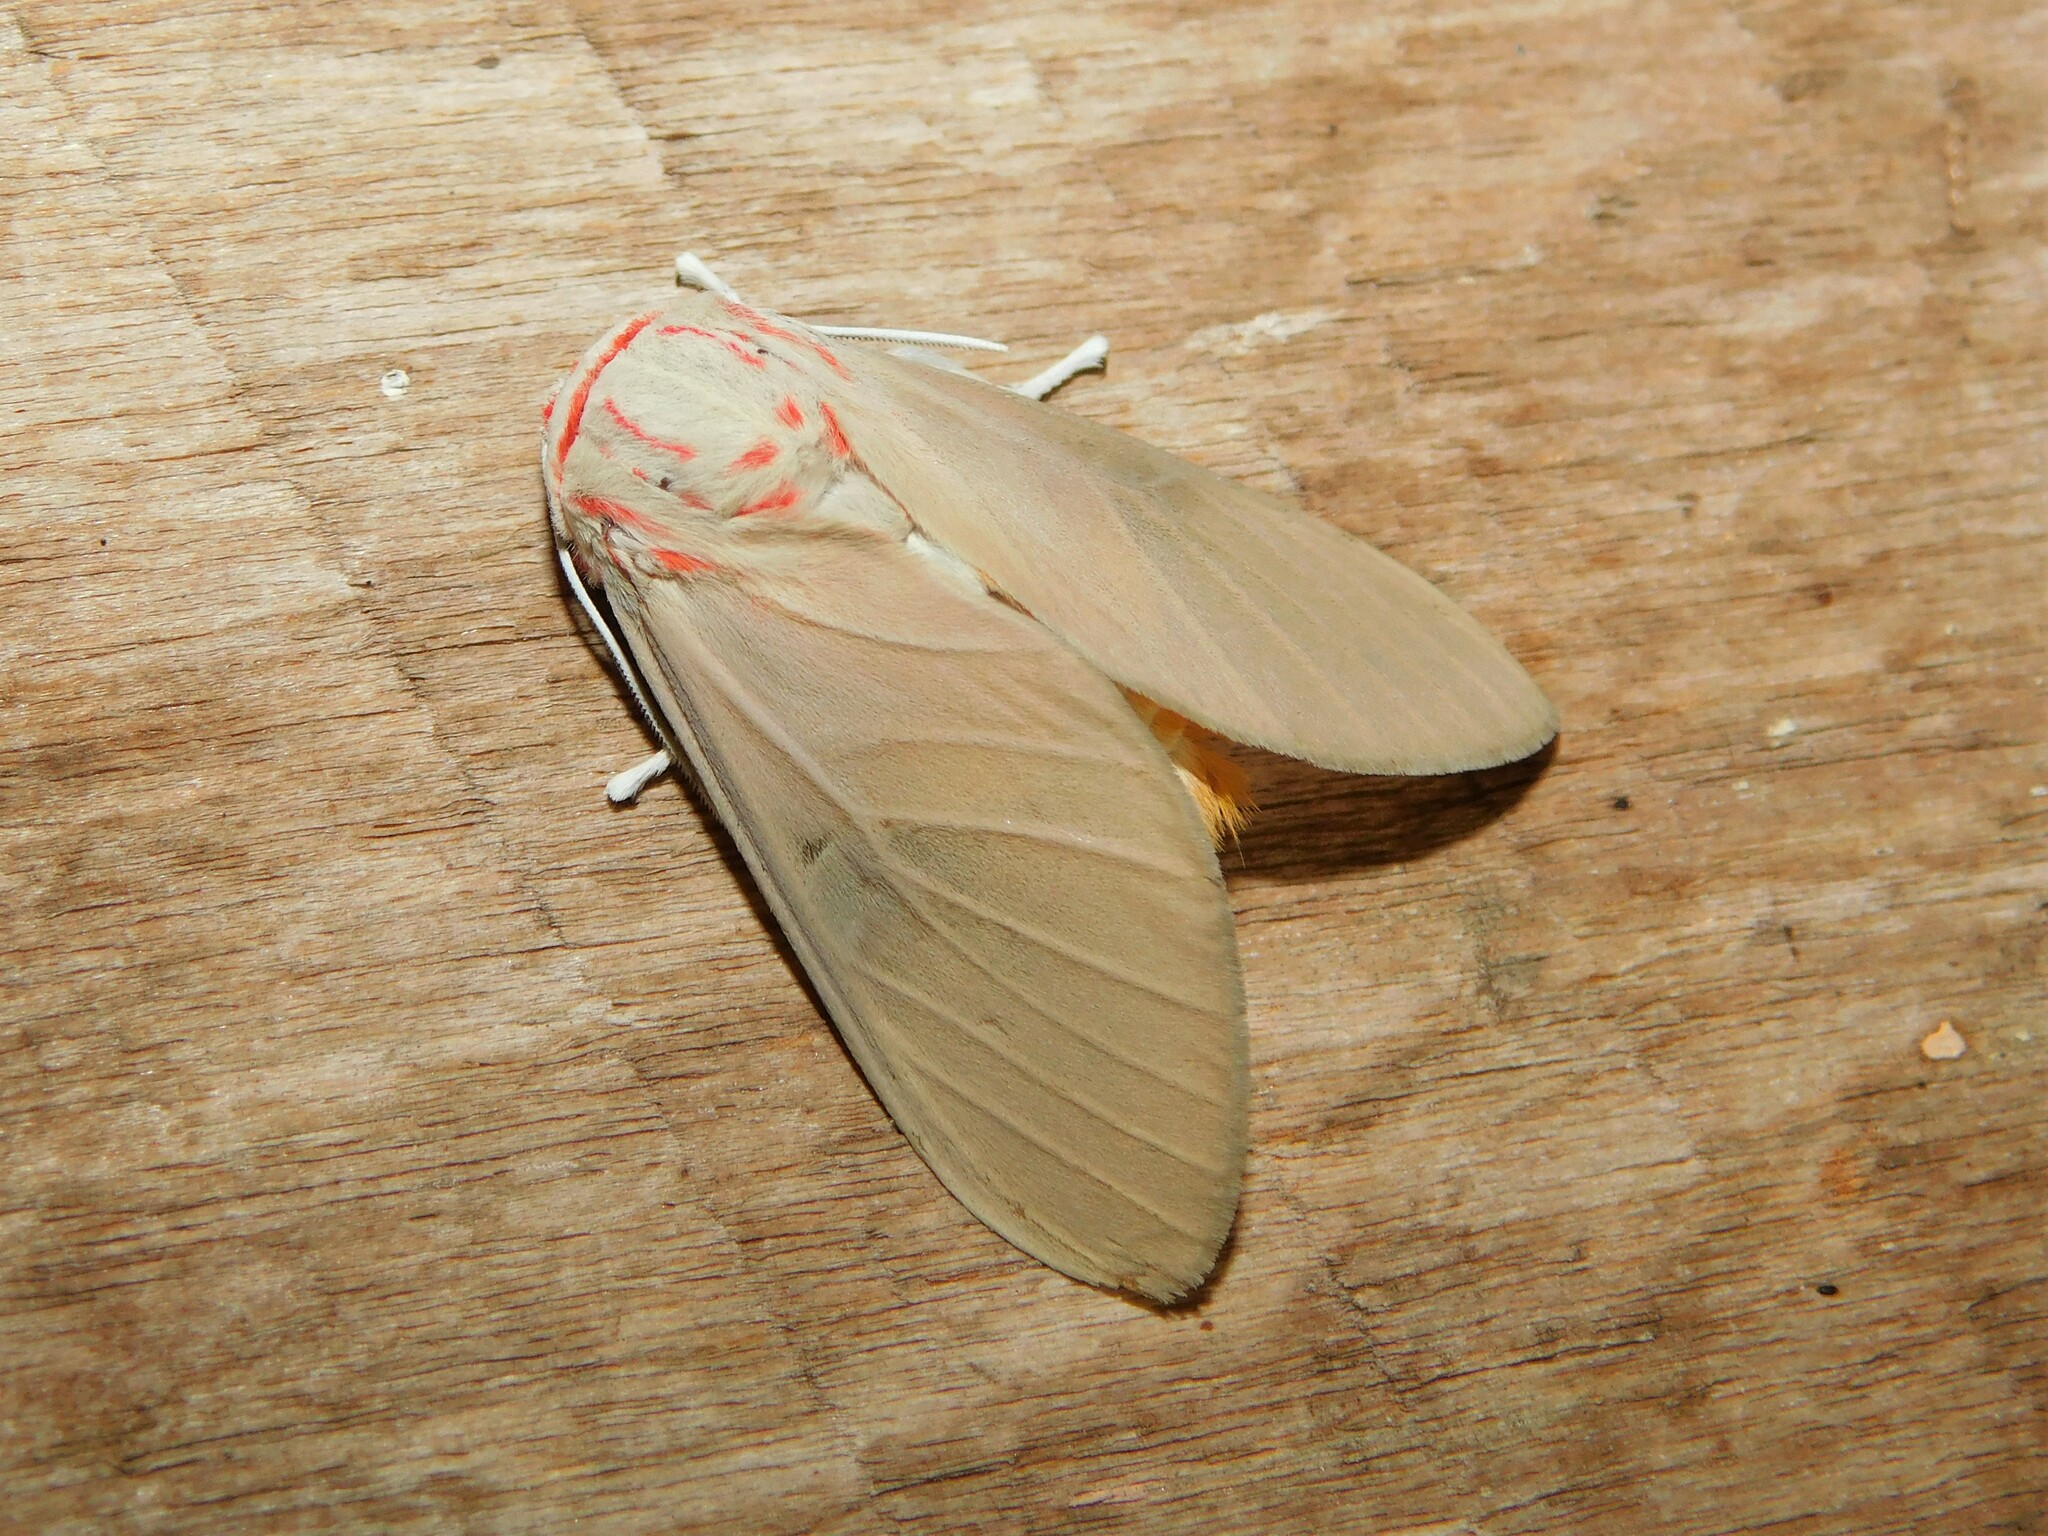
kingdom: Animalia
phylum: Arthropoda
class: Insecta
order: Lepidoptera
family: Erebidae
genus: Balacra
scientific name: Balacra herona
